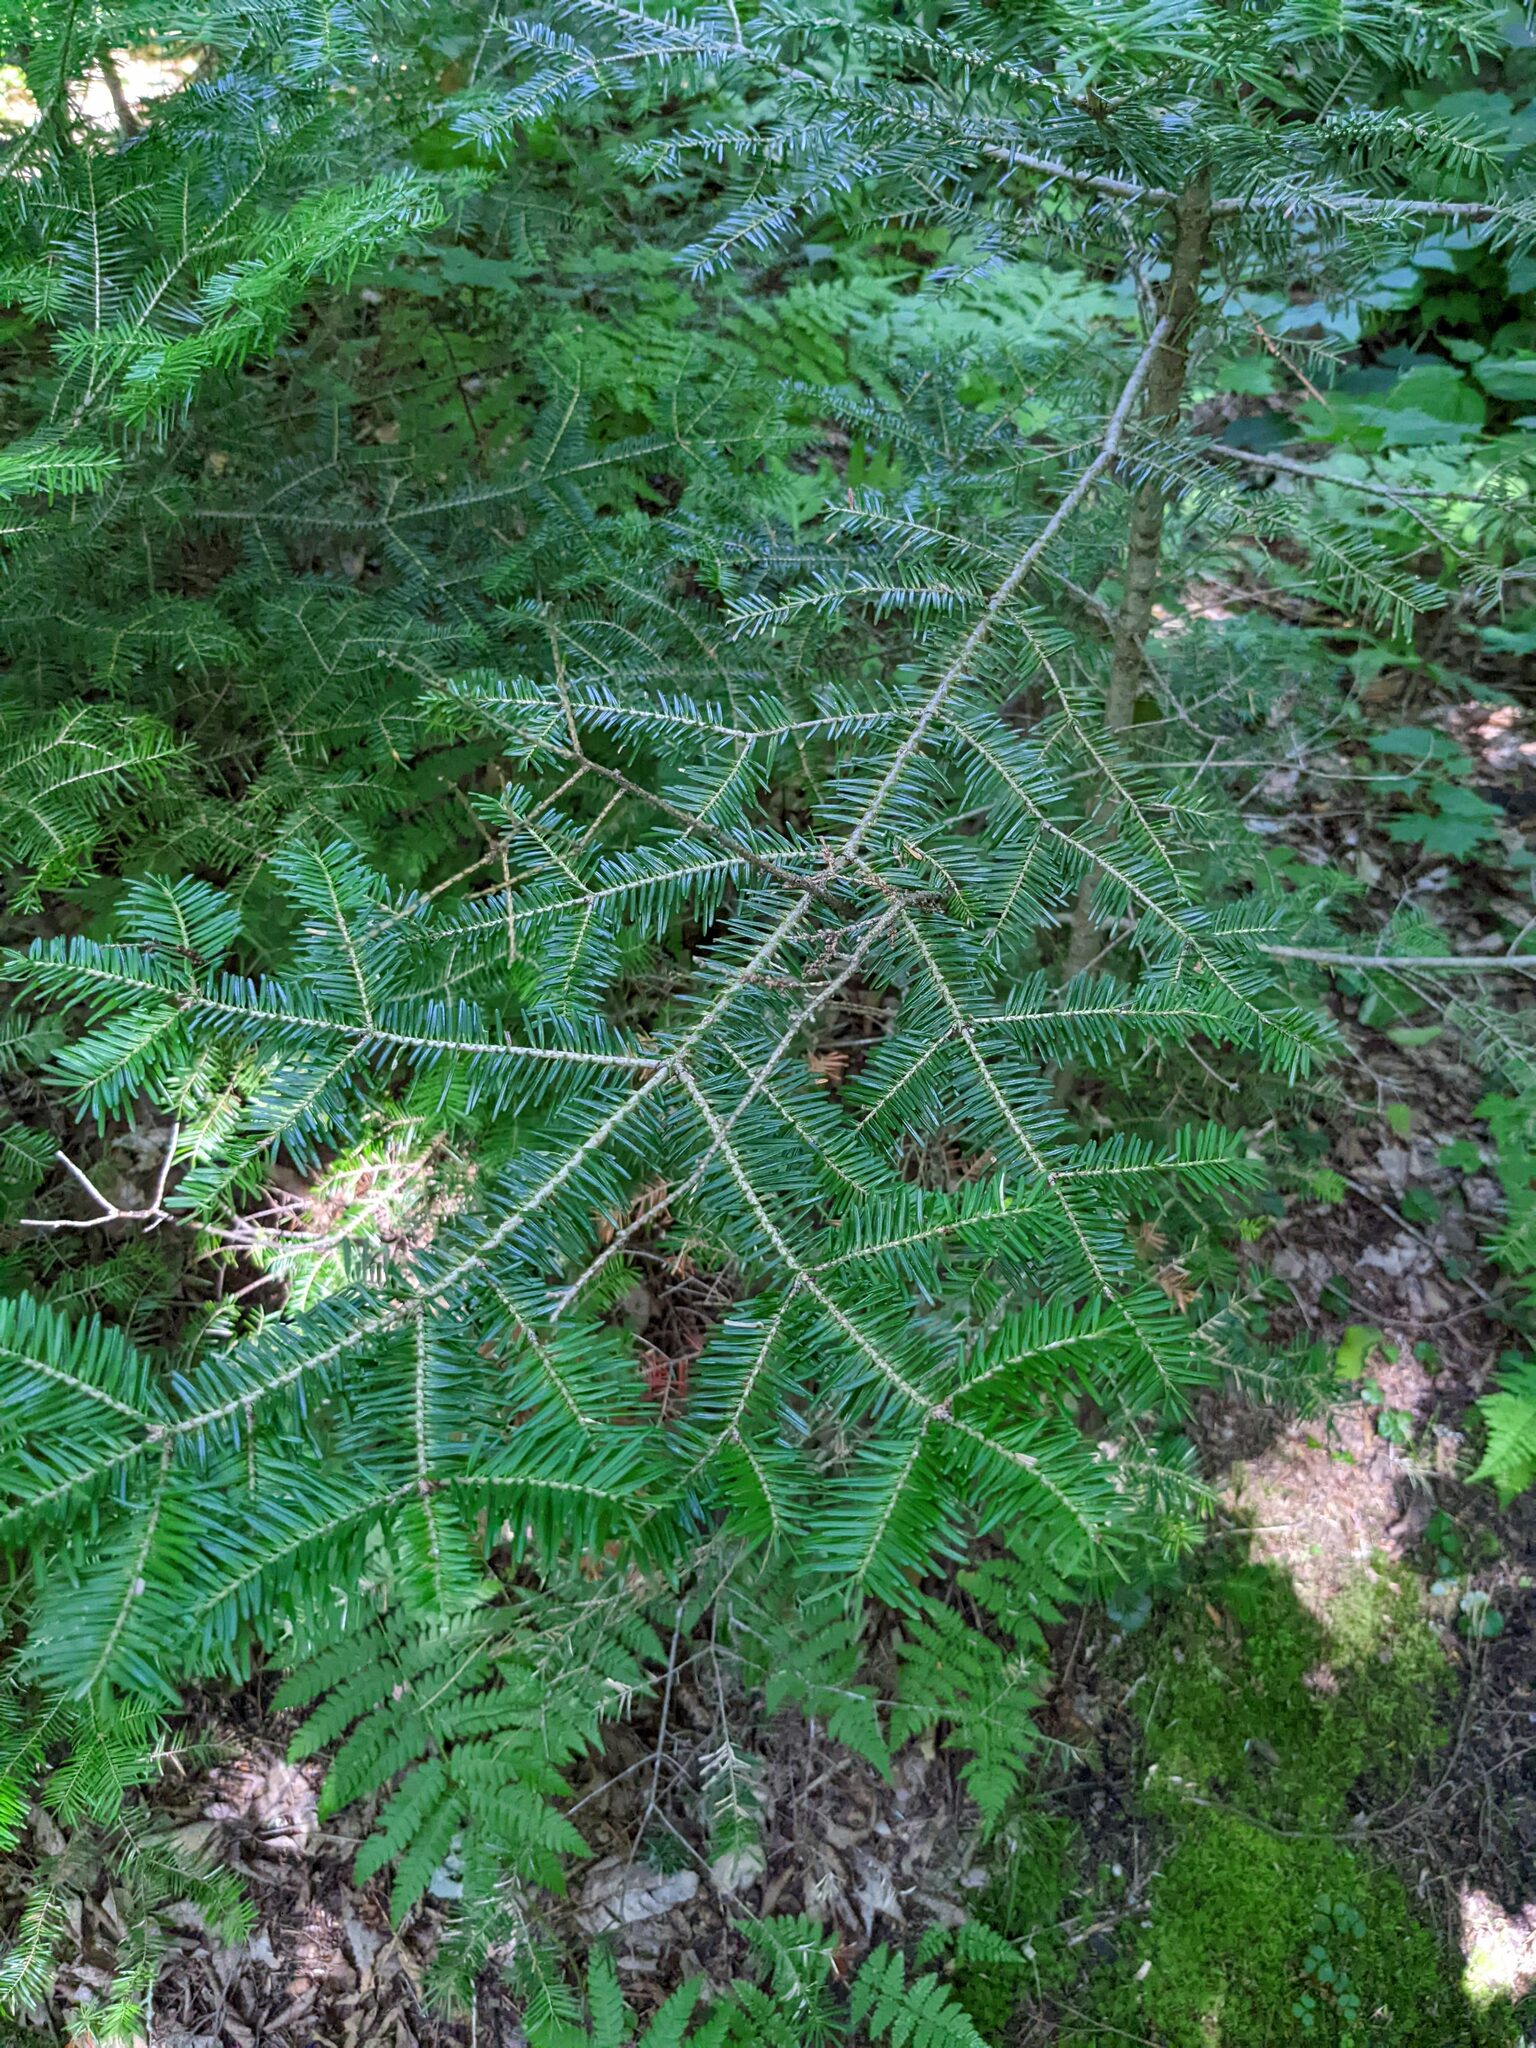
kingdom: Plantae
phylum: Tracheophyta
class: Pinopsida
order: Pinales
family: Pinaceae
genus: Abies
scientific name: Abies balsamea
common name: Balsam fir
